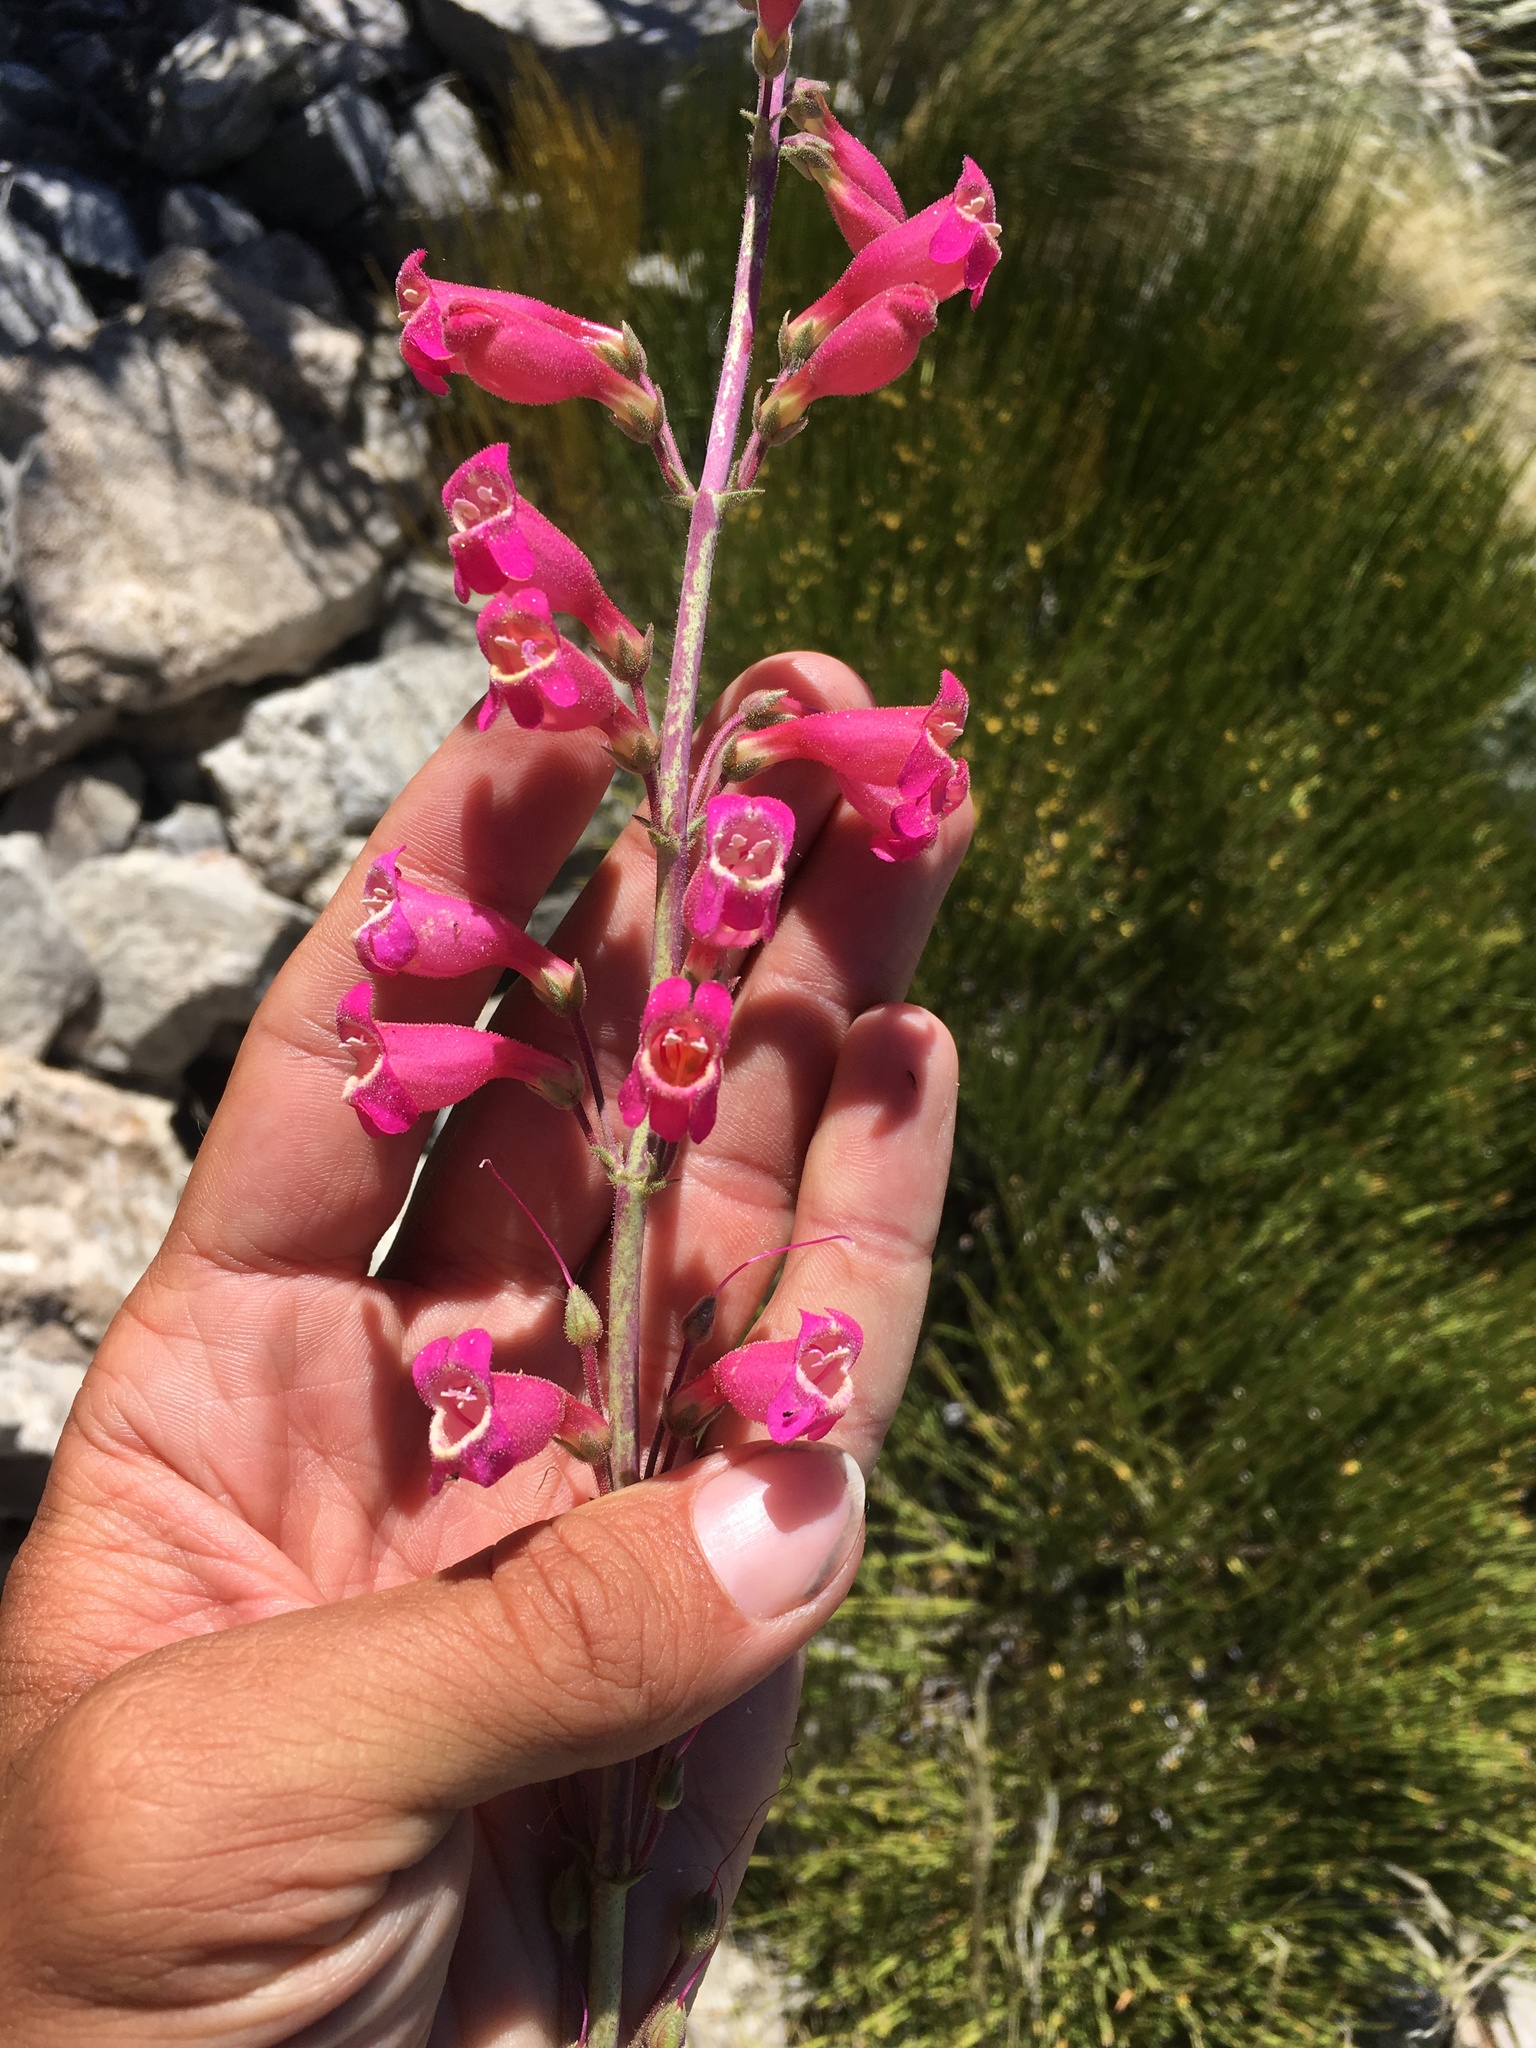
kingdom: Plantae
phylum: Tracheophyta
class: Magnoliopsida
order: Lamiales
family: Plantaginaceae
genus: Penstemon
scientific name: Penstemon floridus
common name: Panamint penstemon
